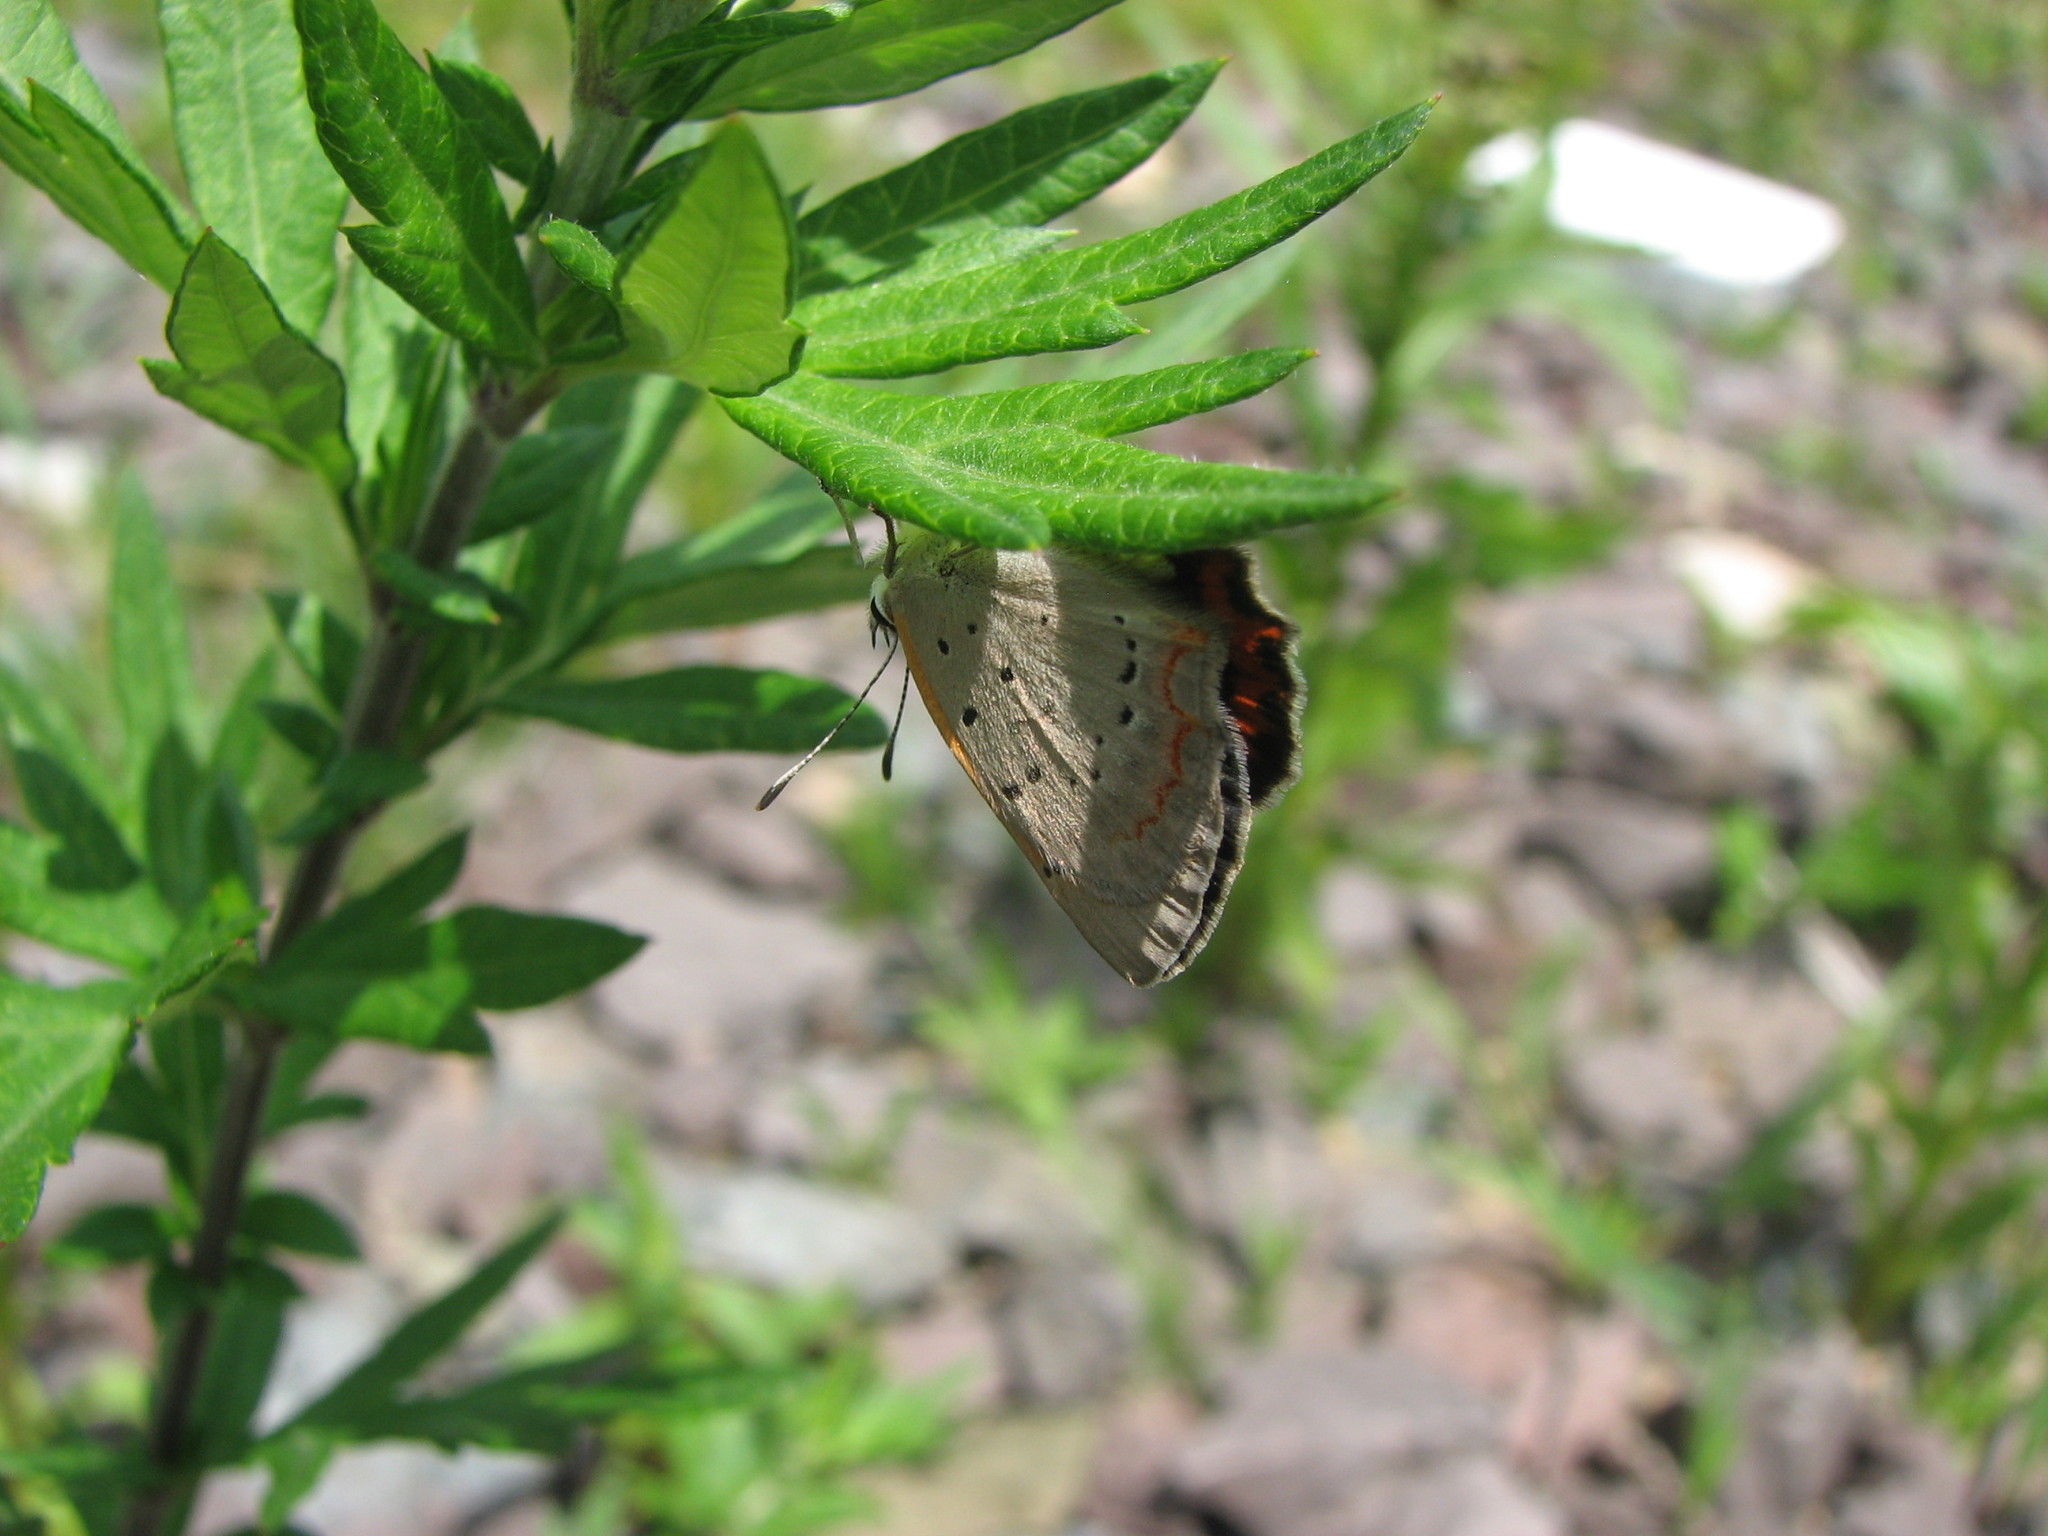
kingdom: Animalia
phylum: Arthropoda
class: Insecta
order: Lepidoptera
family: Lycaenidae
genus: Lycaena
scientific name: Lycaena hypophlaeas
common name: American copper
